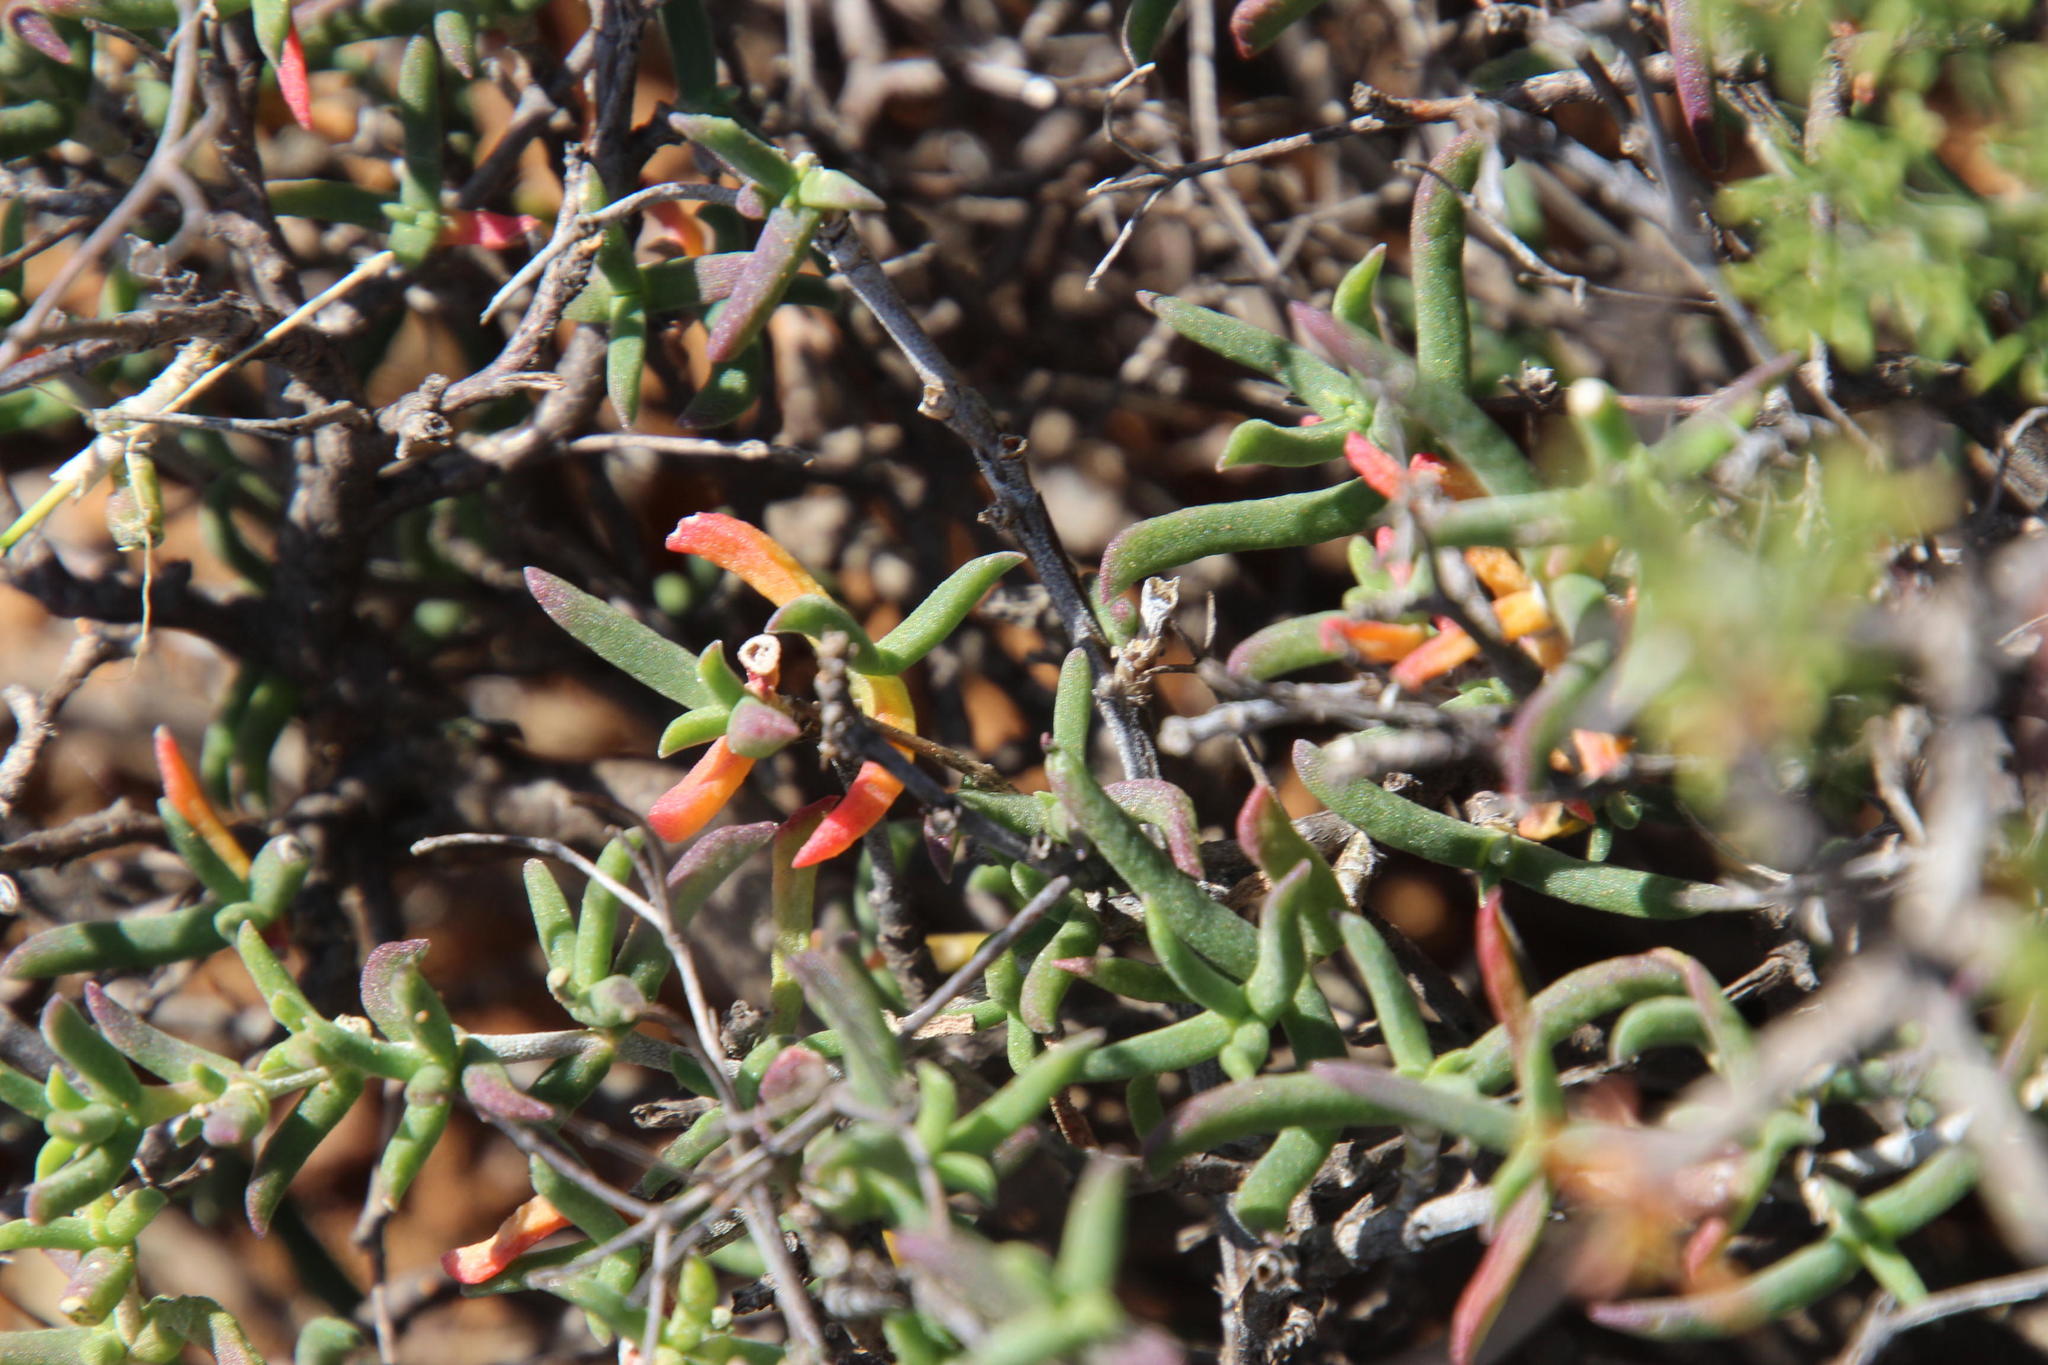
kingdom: Plantae
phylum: Tracheophyta
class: Magnoliopsida
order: Caryophyllales
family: Aizoaceae
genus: Mestoklema
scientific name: Mestoklema tuberosum
